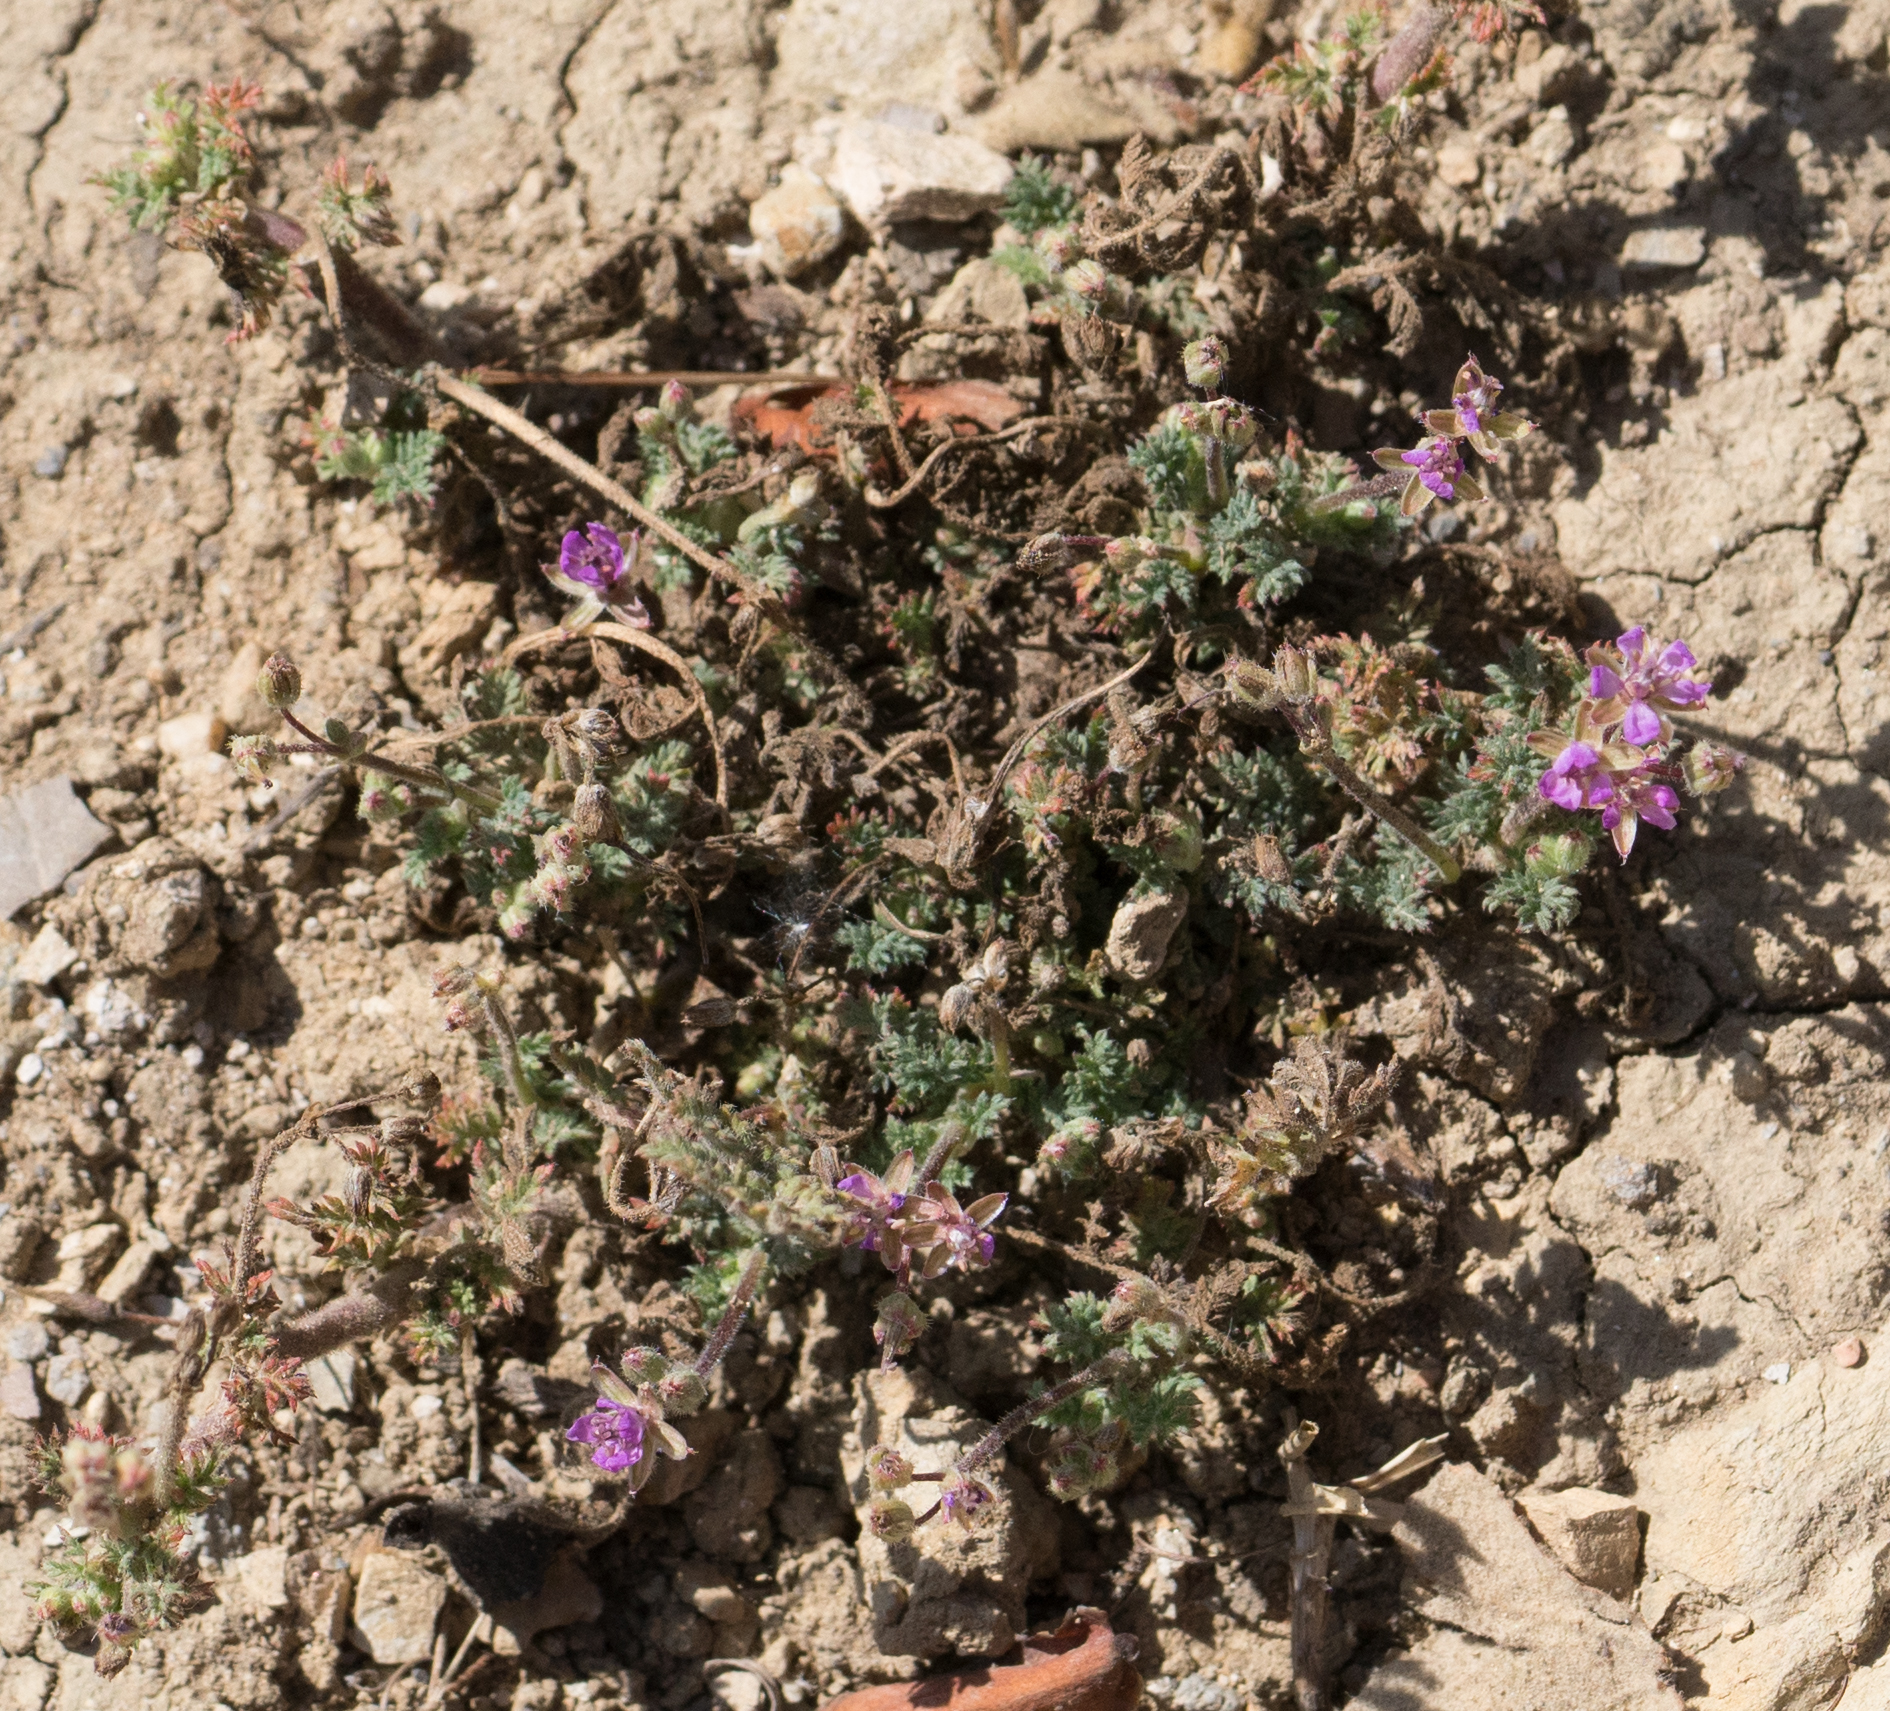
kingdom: Plantae
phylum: Tracheophyta
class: Magnoliopsida
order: Geraniales
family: Geraniaceae
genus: Erodium
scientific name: Erodium cicutarium
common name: Common stork's-bill
